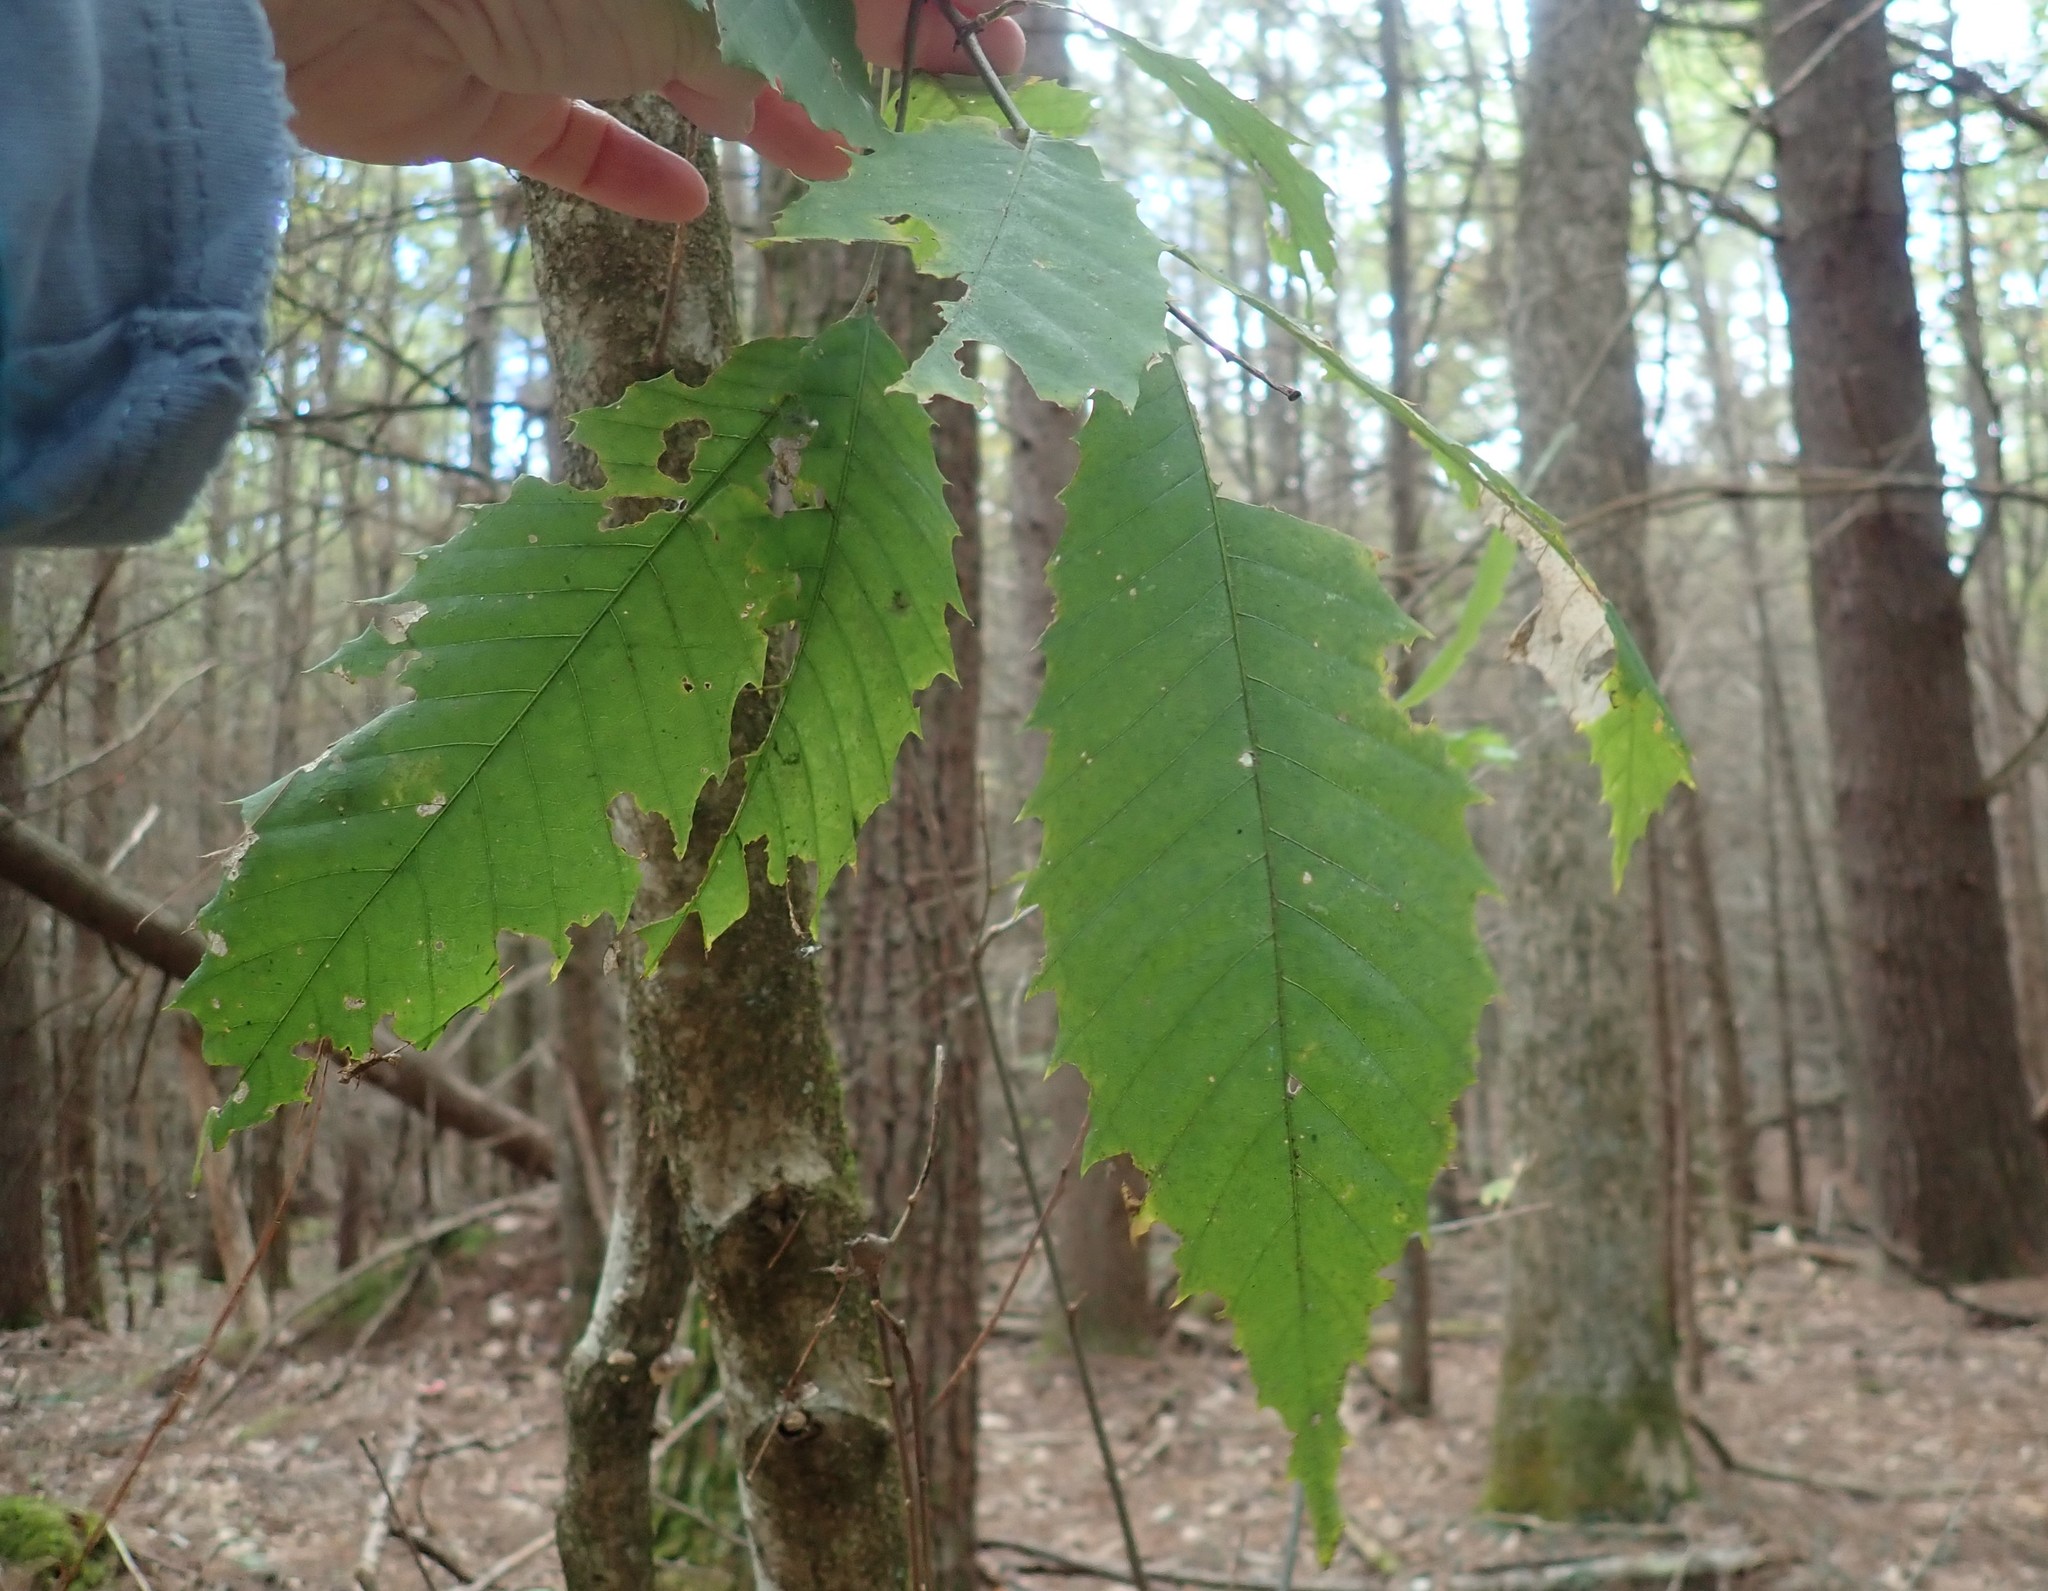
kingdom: Plantae
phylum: Tracheophyta
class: Magnoliopsida
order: Fagales
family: Fagaceae
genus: Castanea
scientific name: Castanea dentata
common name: American chestnut
